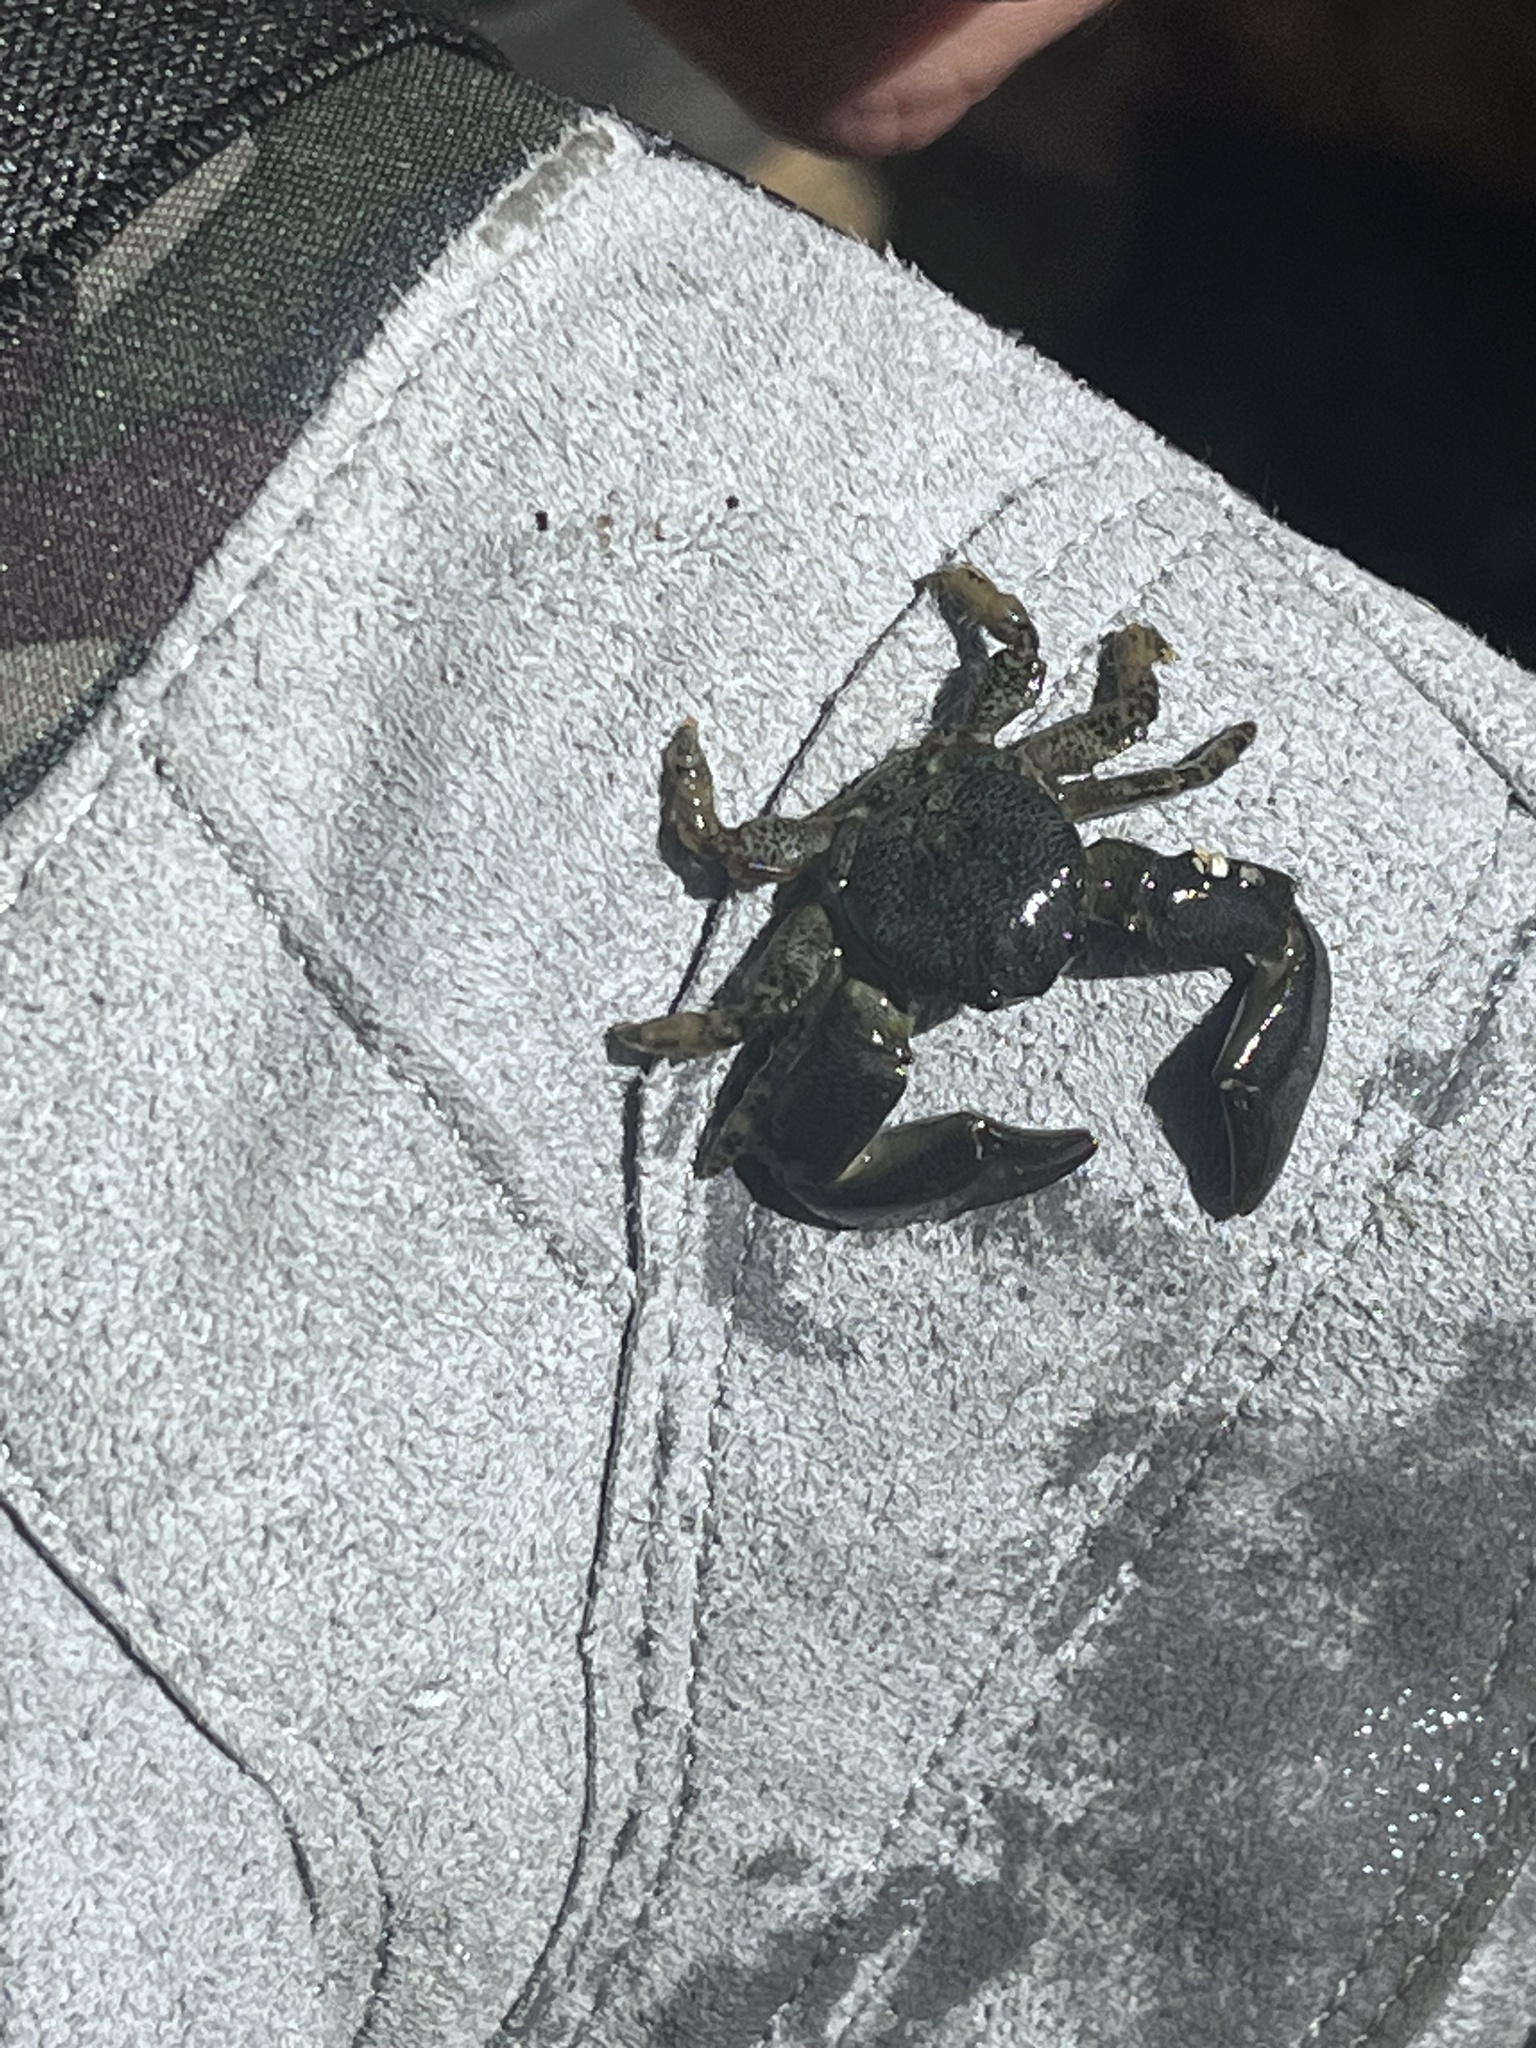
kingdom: Animalia
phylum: Arthropoda
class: Malacostraca
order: Decapoda
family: Porcellanidae
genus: Petrolisthes
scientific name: Petrolisthes granulosus
